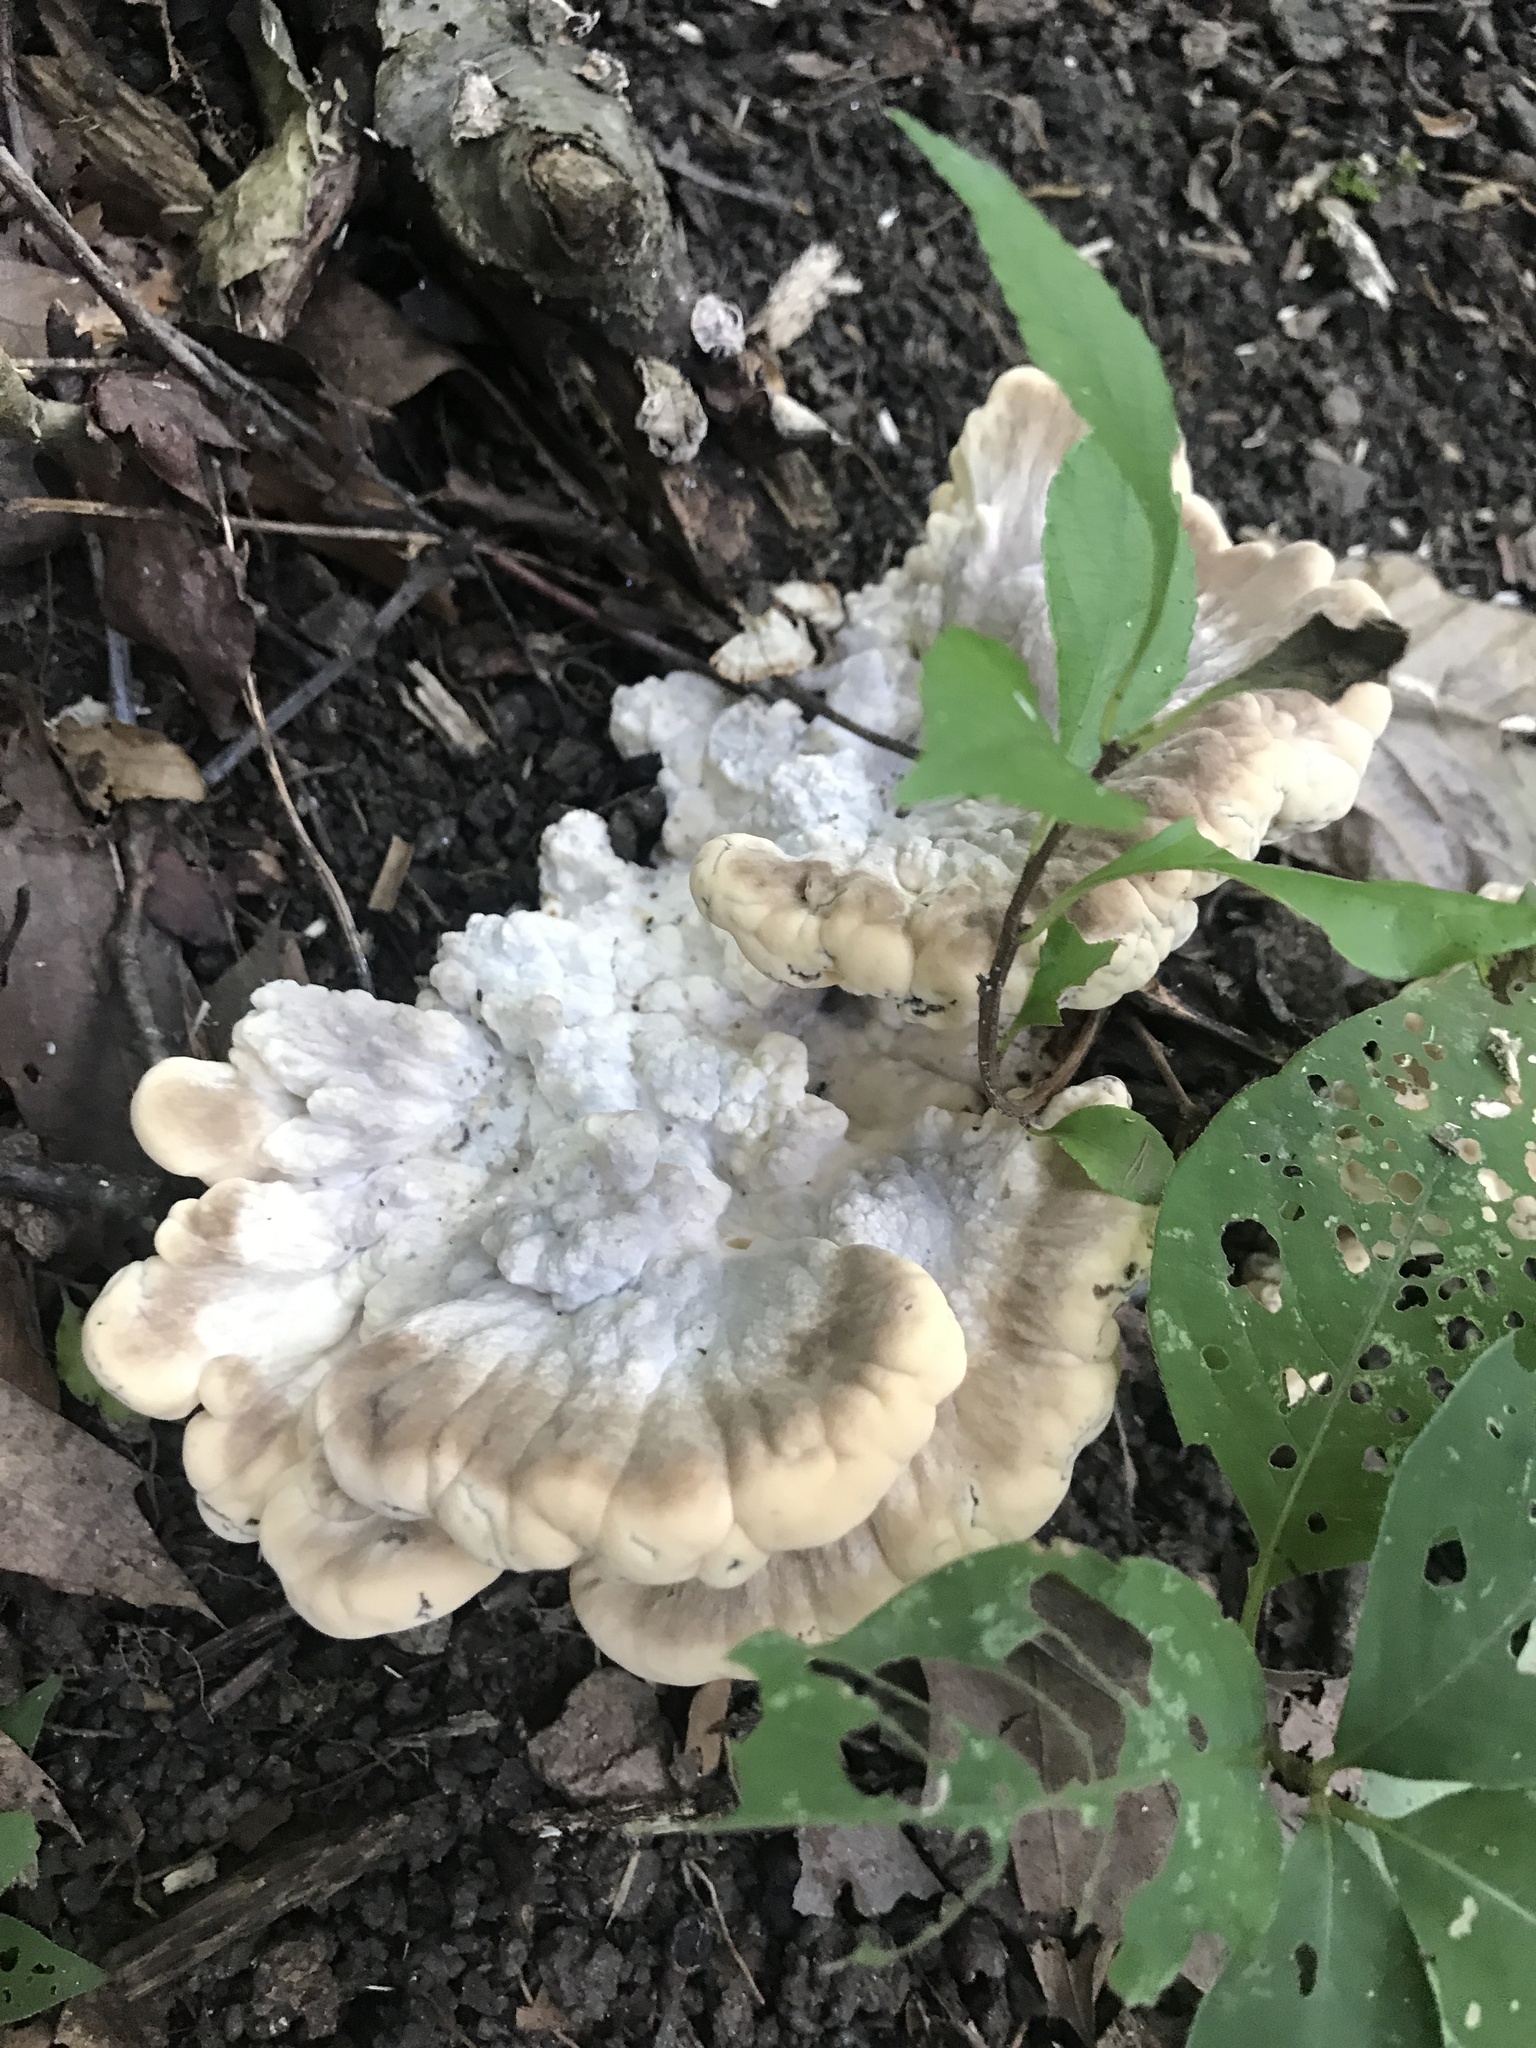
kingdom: Fungi
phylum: Basidiomycota
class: Agaricomycetes
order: Polyporales
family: Meripilaceae
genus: Meripilus
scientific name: Meripilus sumstinei
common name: Black-staining polypore
